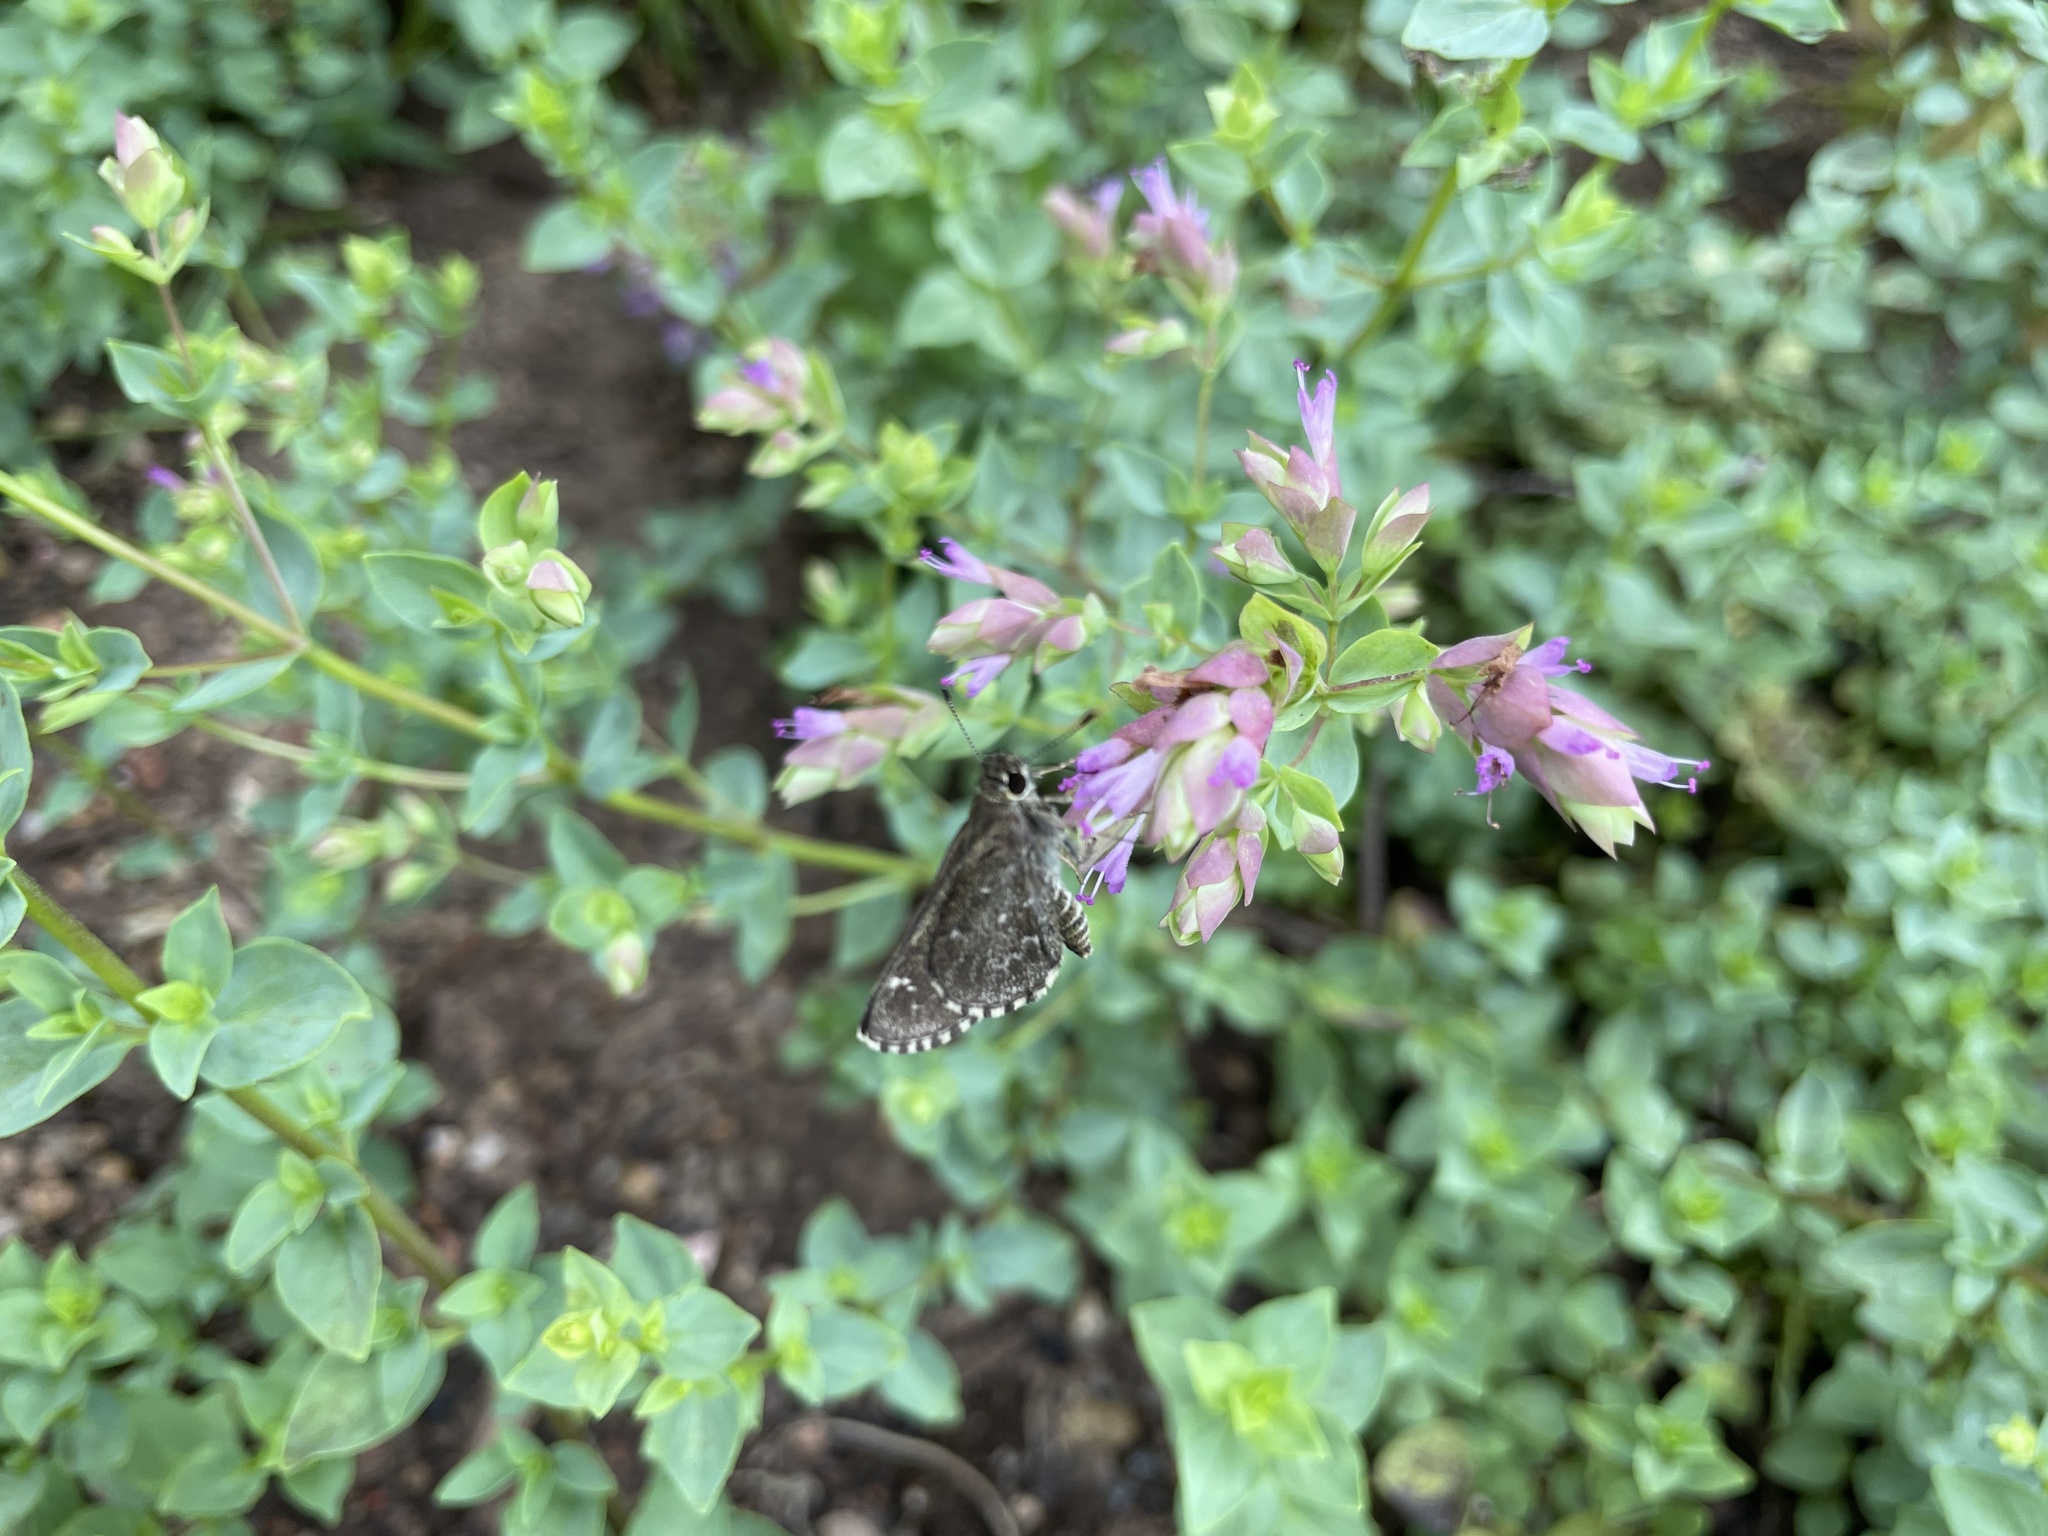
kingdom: Animalia
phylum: Arthropoda
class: Insecta
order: Lepidoptera
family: Hesperiidae
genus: Mastor
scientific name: Mastor celia
